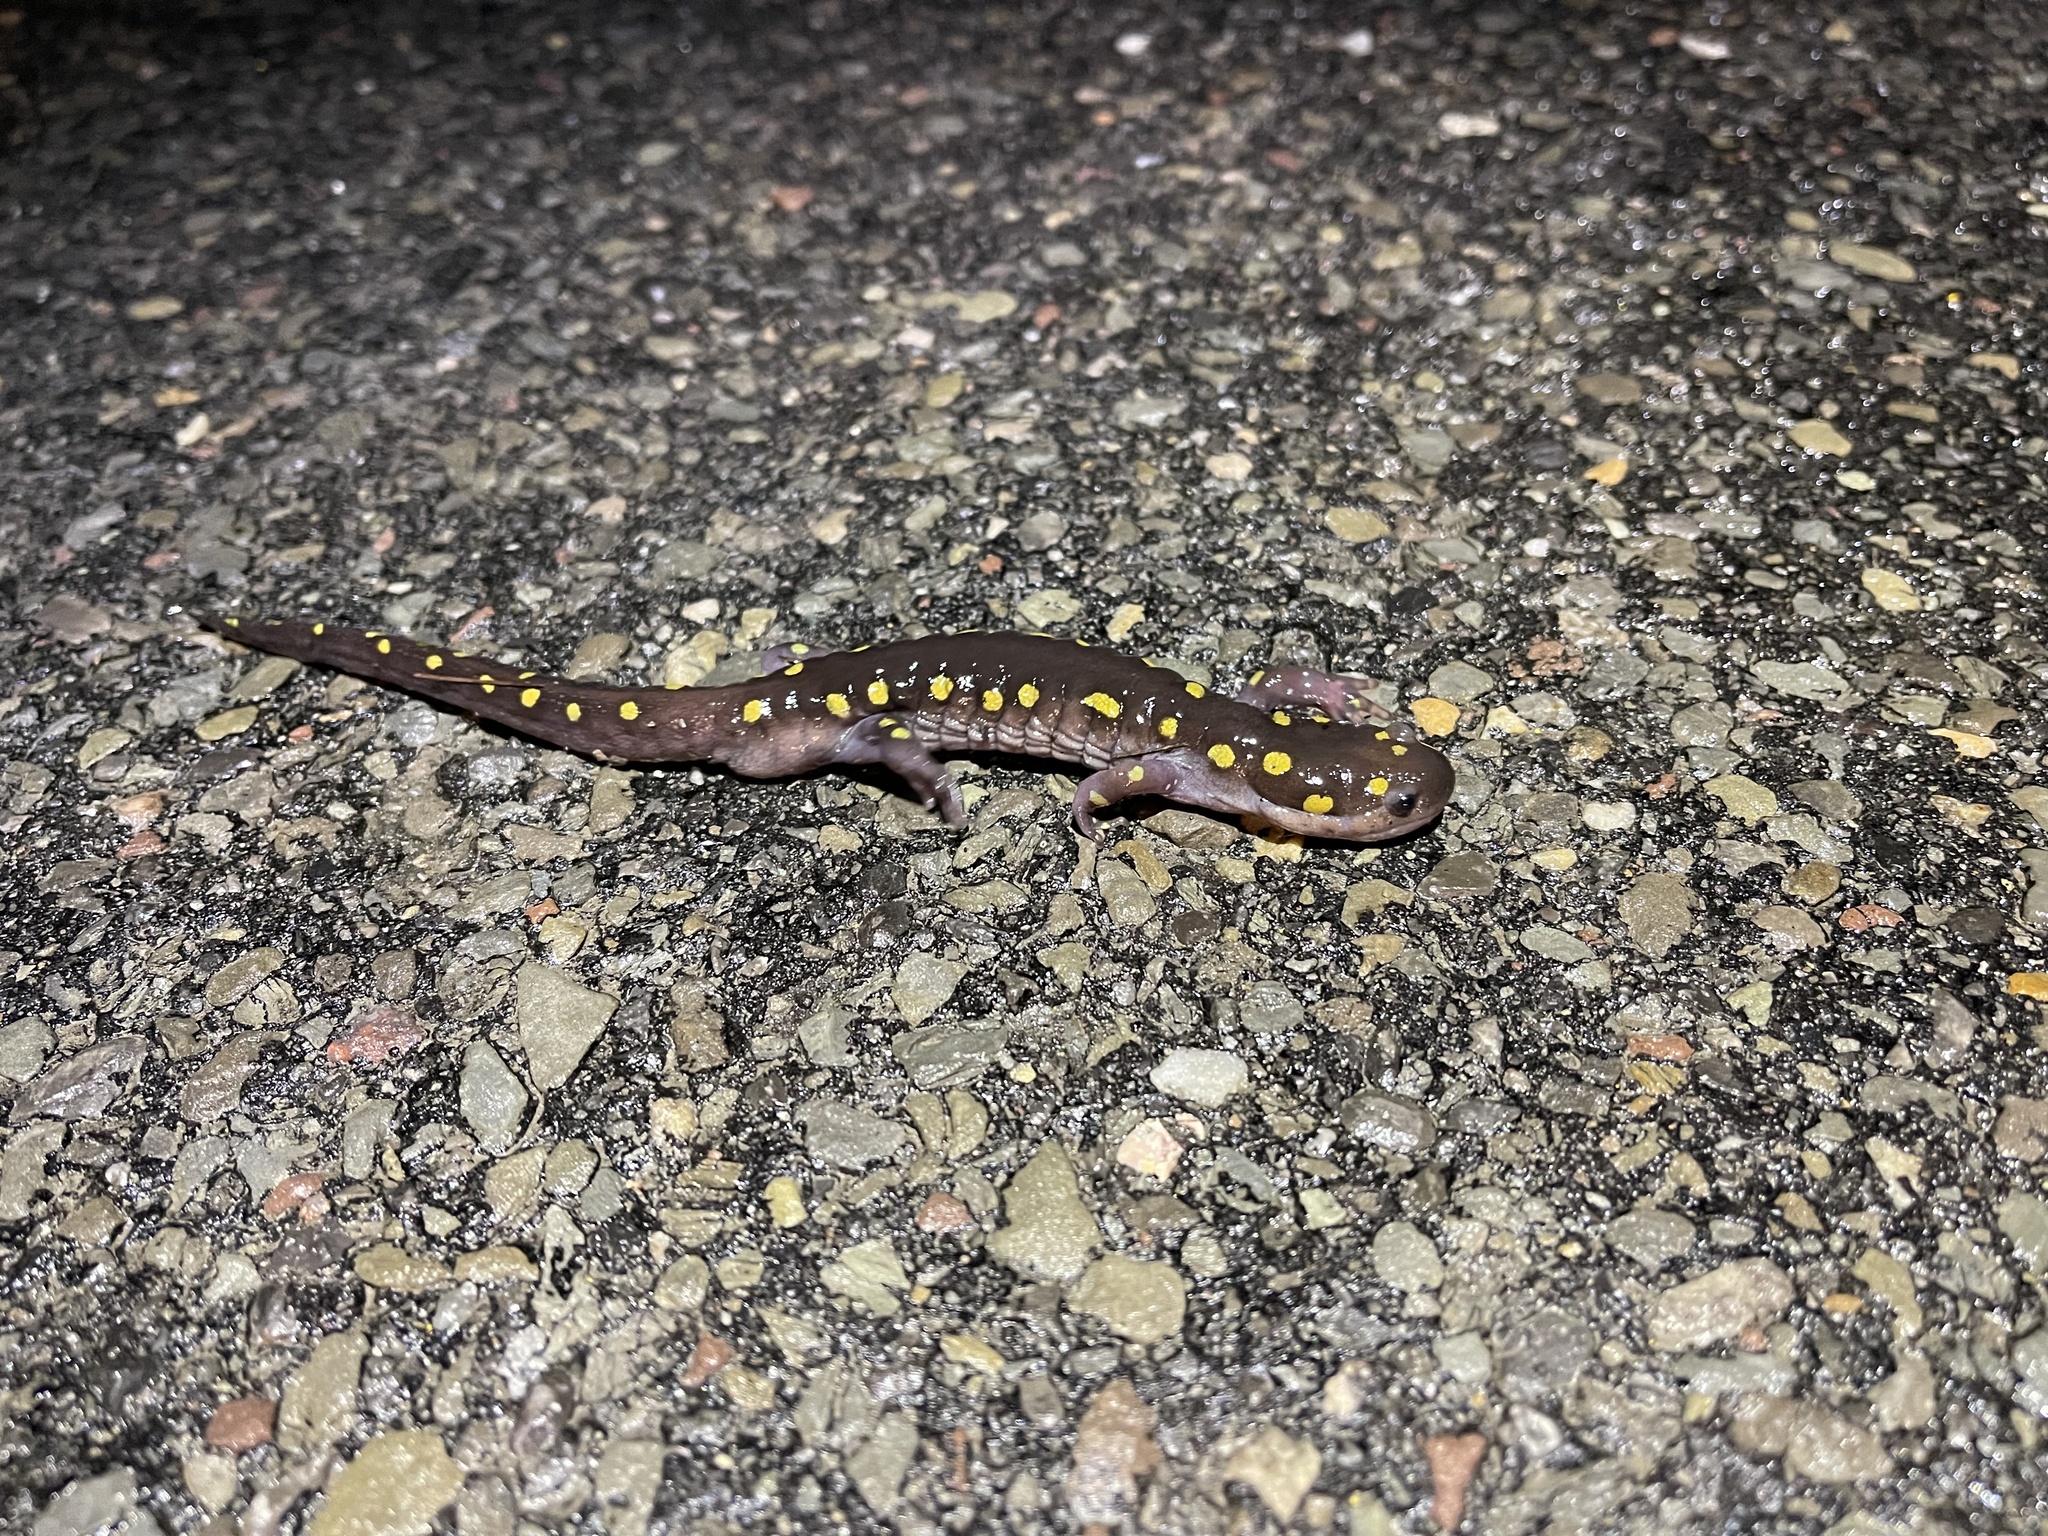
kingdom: Animalia
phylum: Chordata
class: Amphibia
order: Caudata
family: Ambystomatidae
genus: Ambystoma
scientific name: Ambystoma maculatum
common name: Spotted salamander
